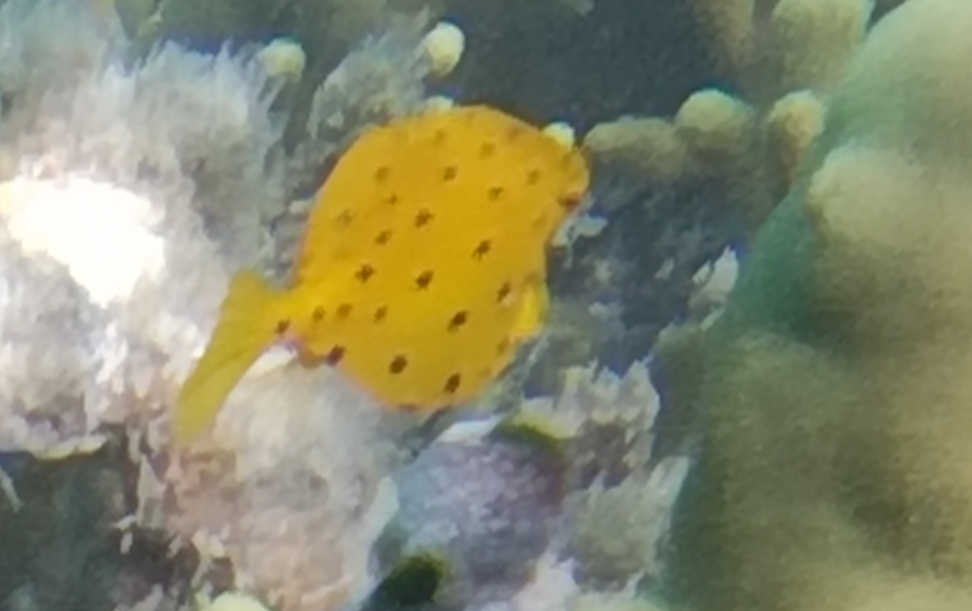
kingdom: Animalia
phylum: Chordata
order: Tetraodontiformes
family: Ostraciidae
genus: Ostracion
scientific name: Ostracion cubicus
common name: Cube trunkfish
